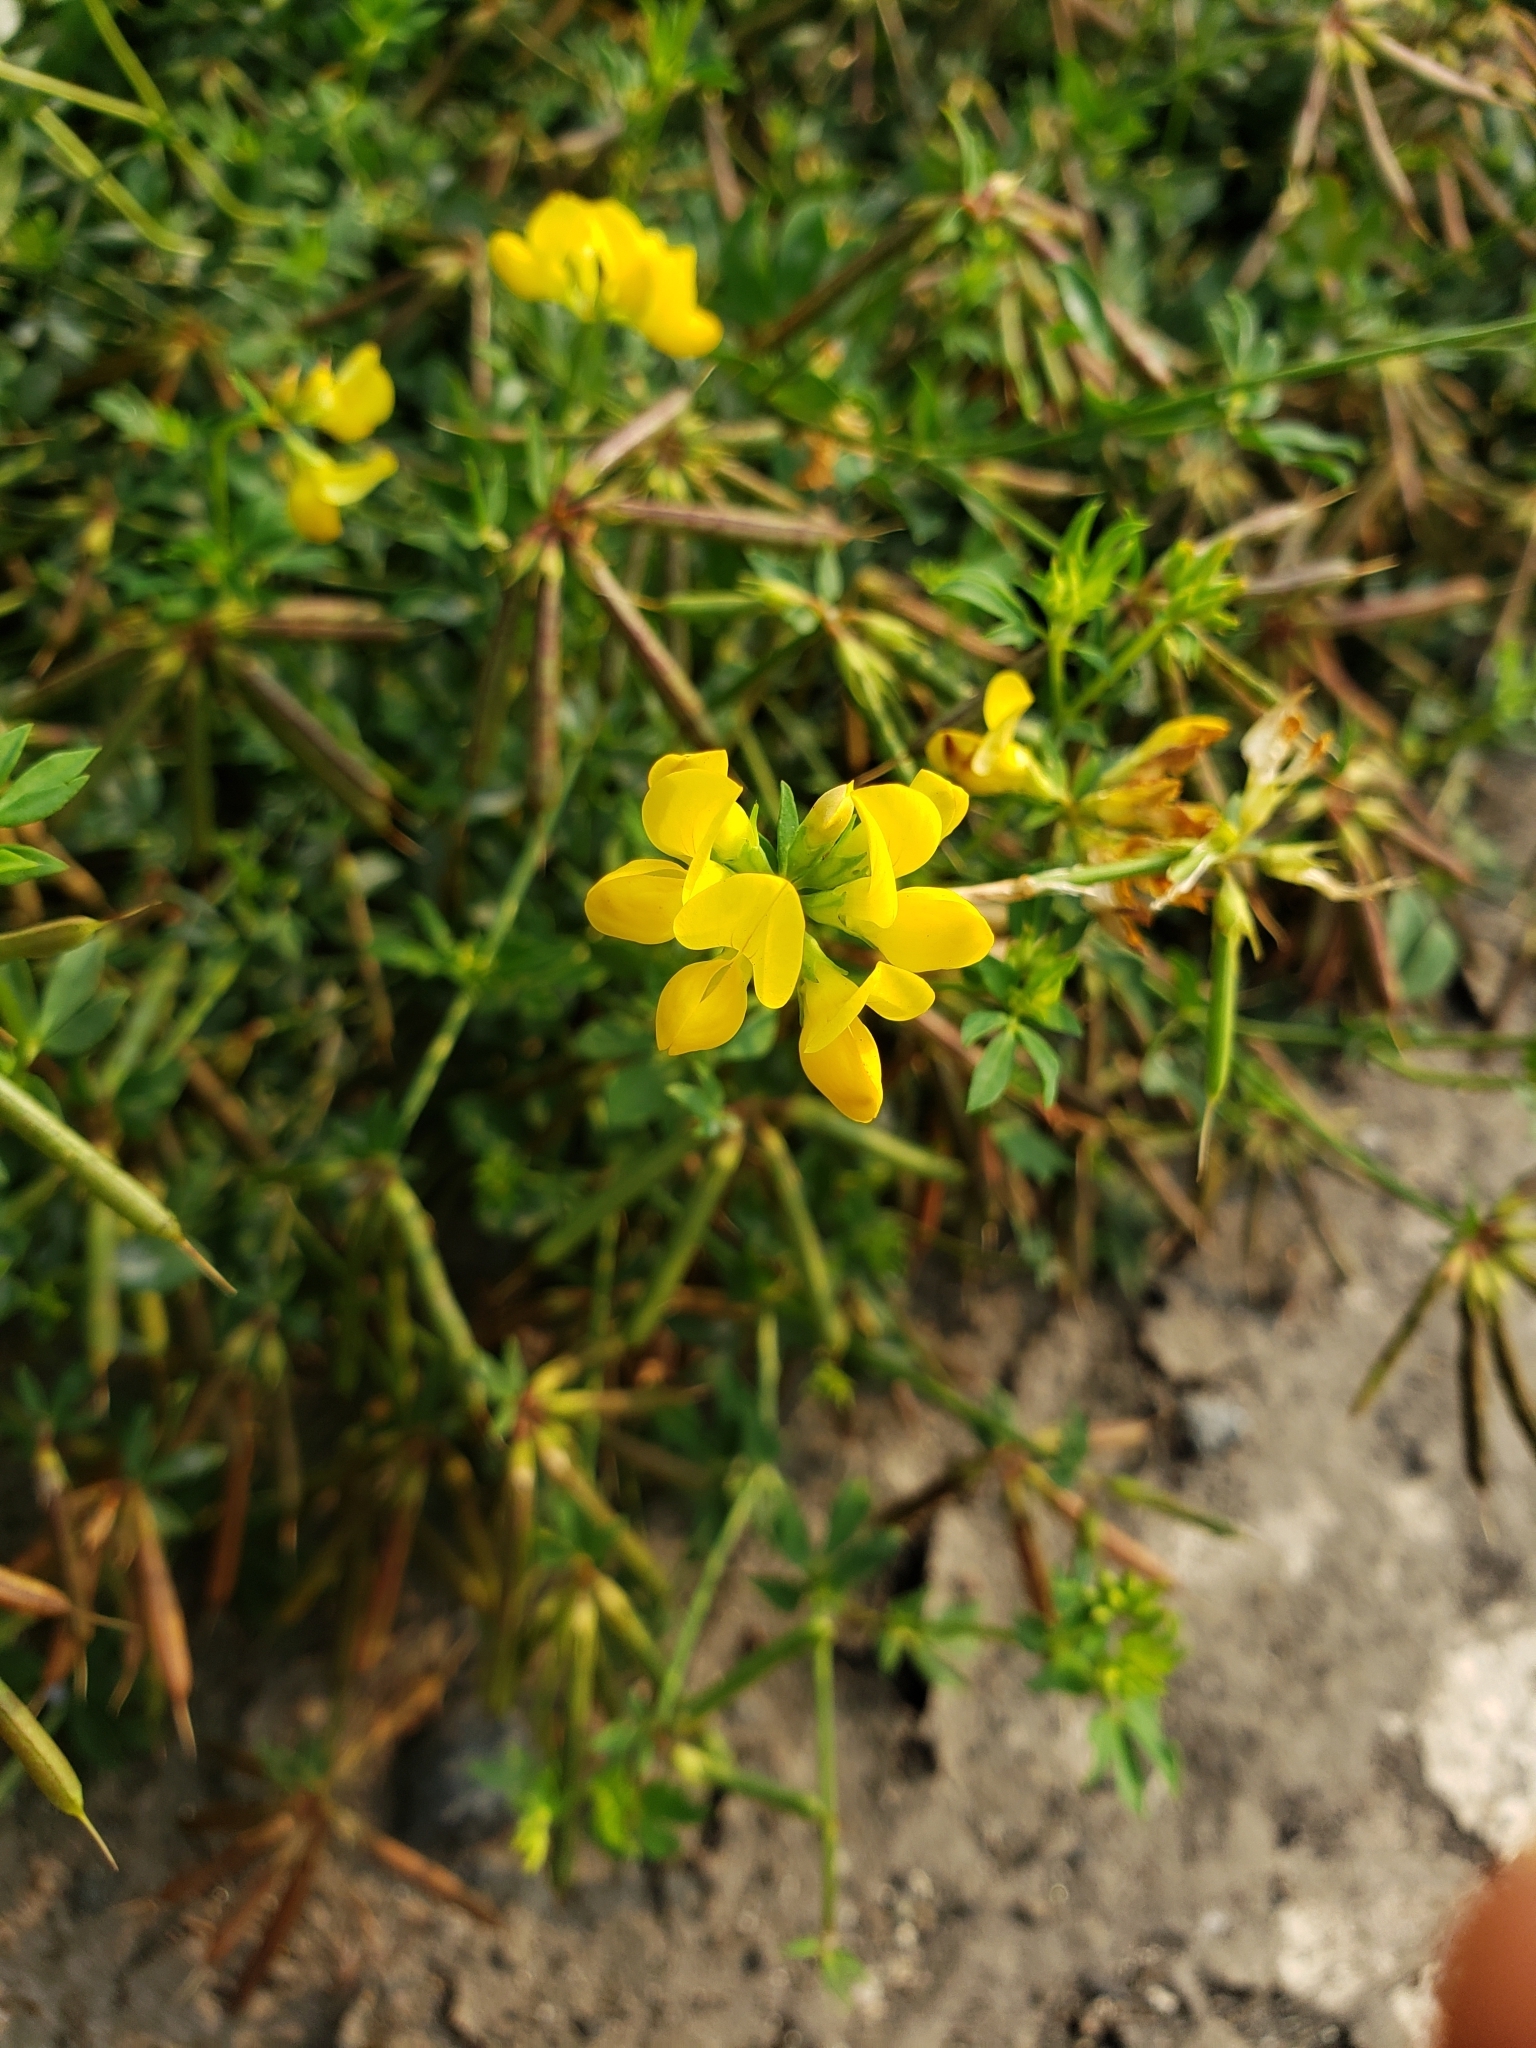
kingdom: Plantae
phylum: Tracheophyta
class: Magnoliopsida
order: Fabales
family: Fabaceae
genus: Lotus
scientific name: Lotus corniculatus
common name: Common bird's-foot-trefoil
